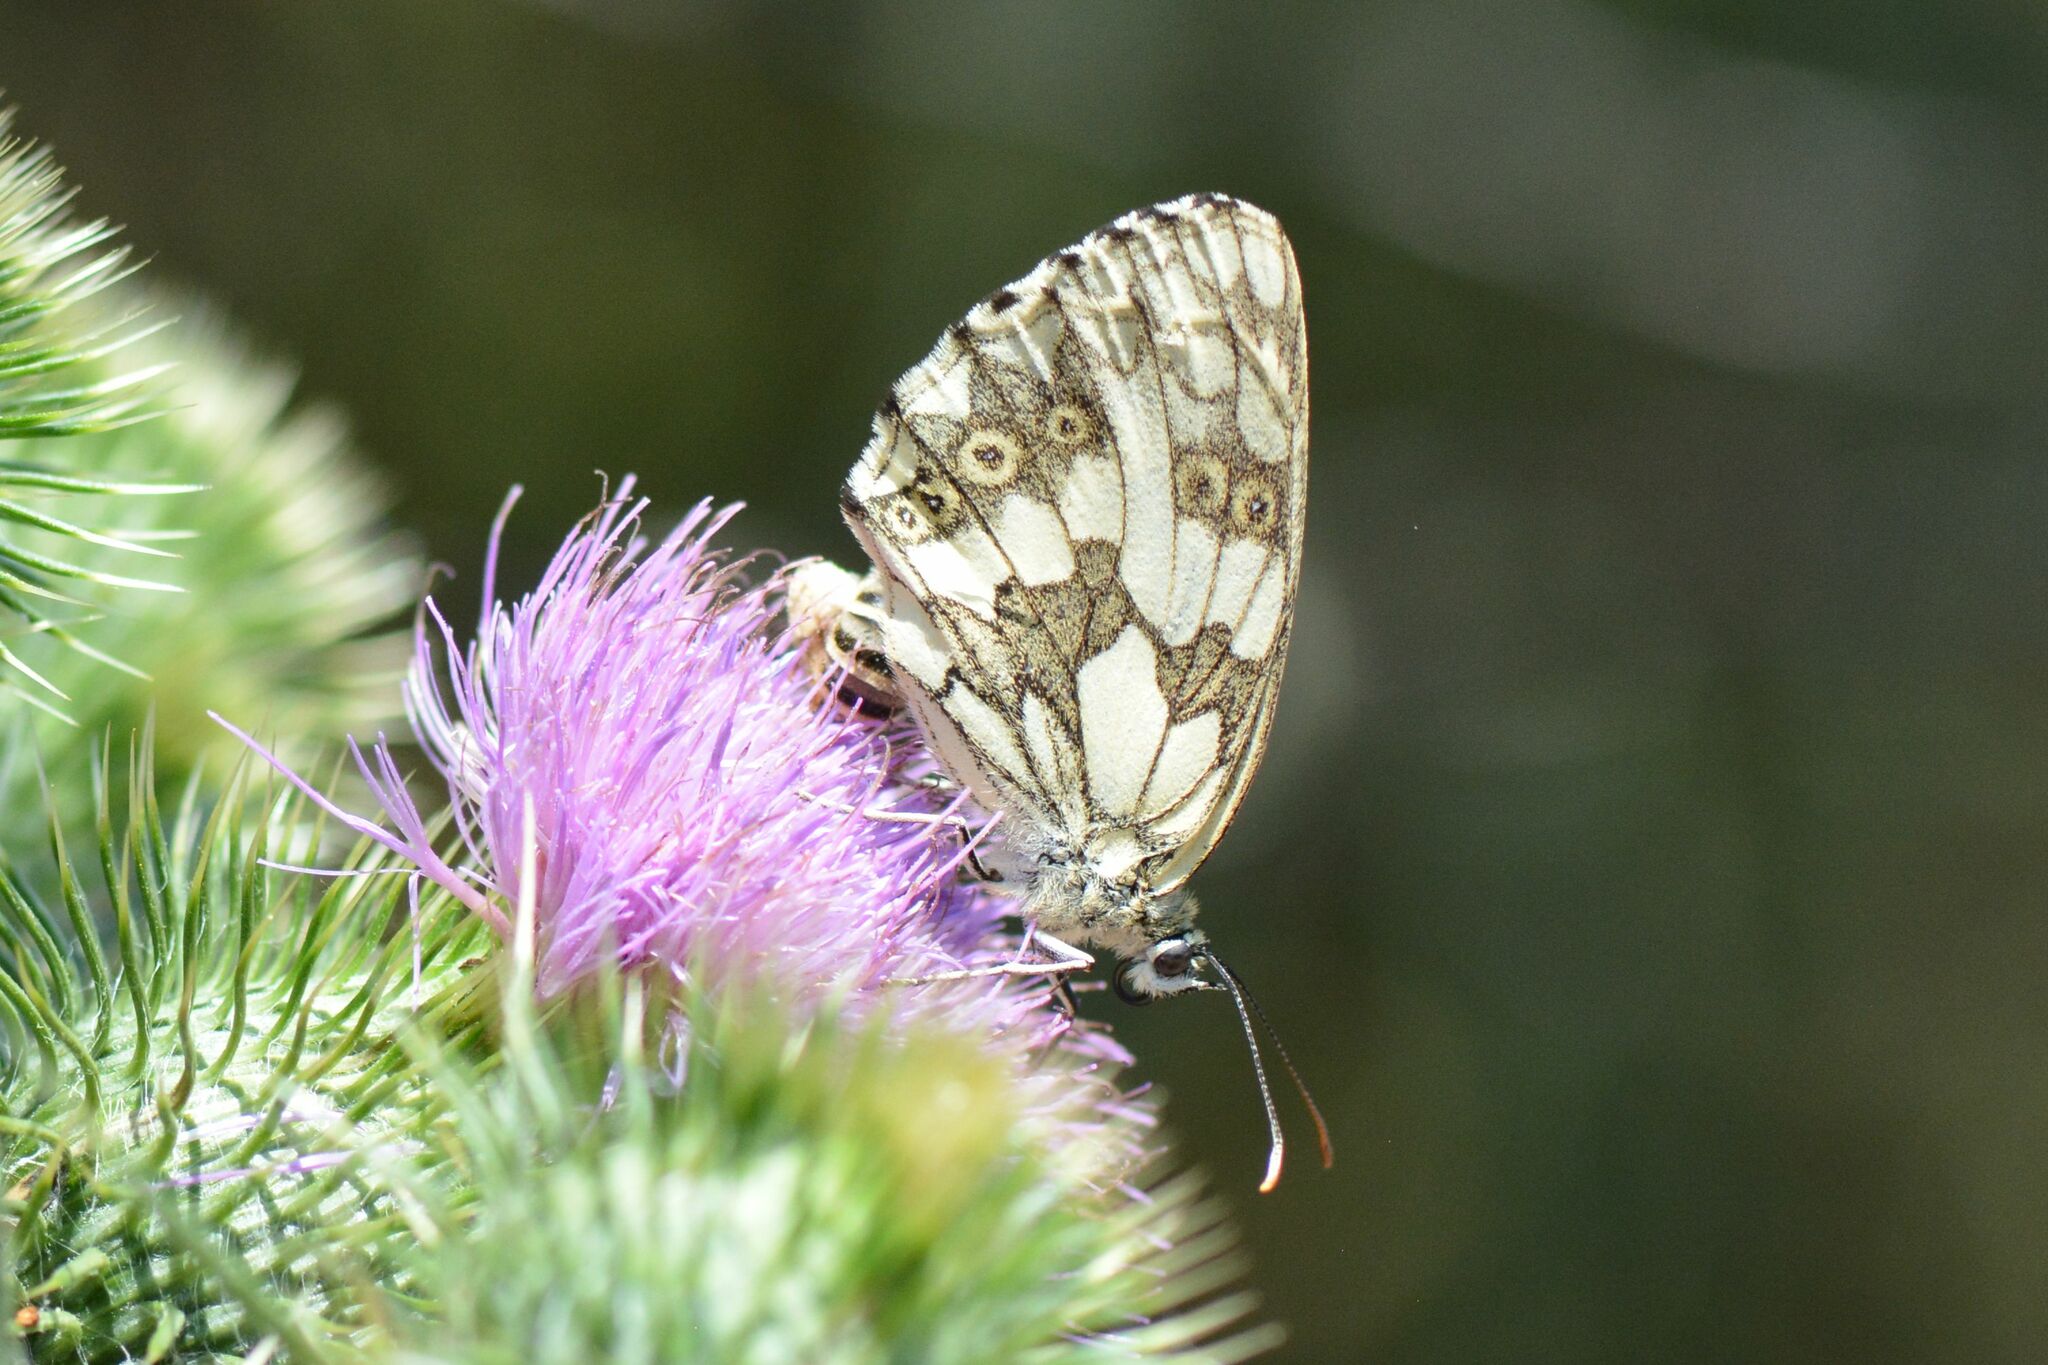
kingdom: Animalia
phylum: Arthropoda
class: Insecta
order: Lepidoptera
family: Nymphalidae
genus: Melanargia
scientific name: Melanargia galathea
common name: Marbled white
